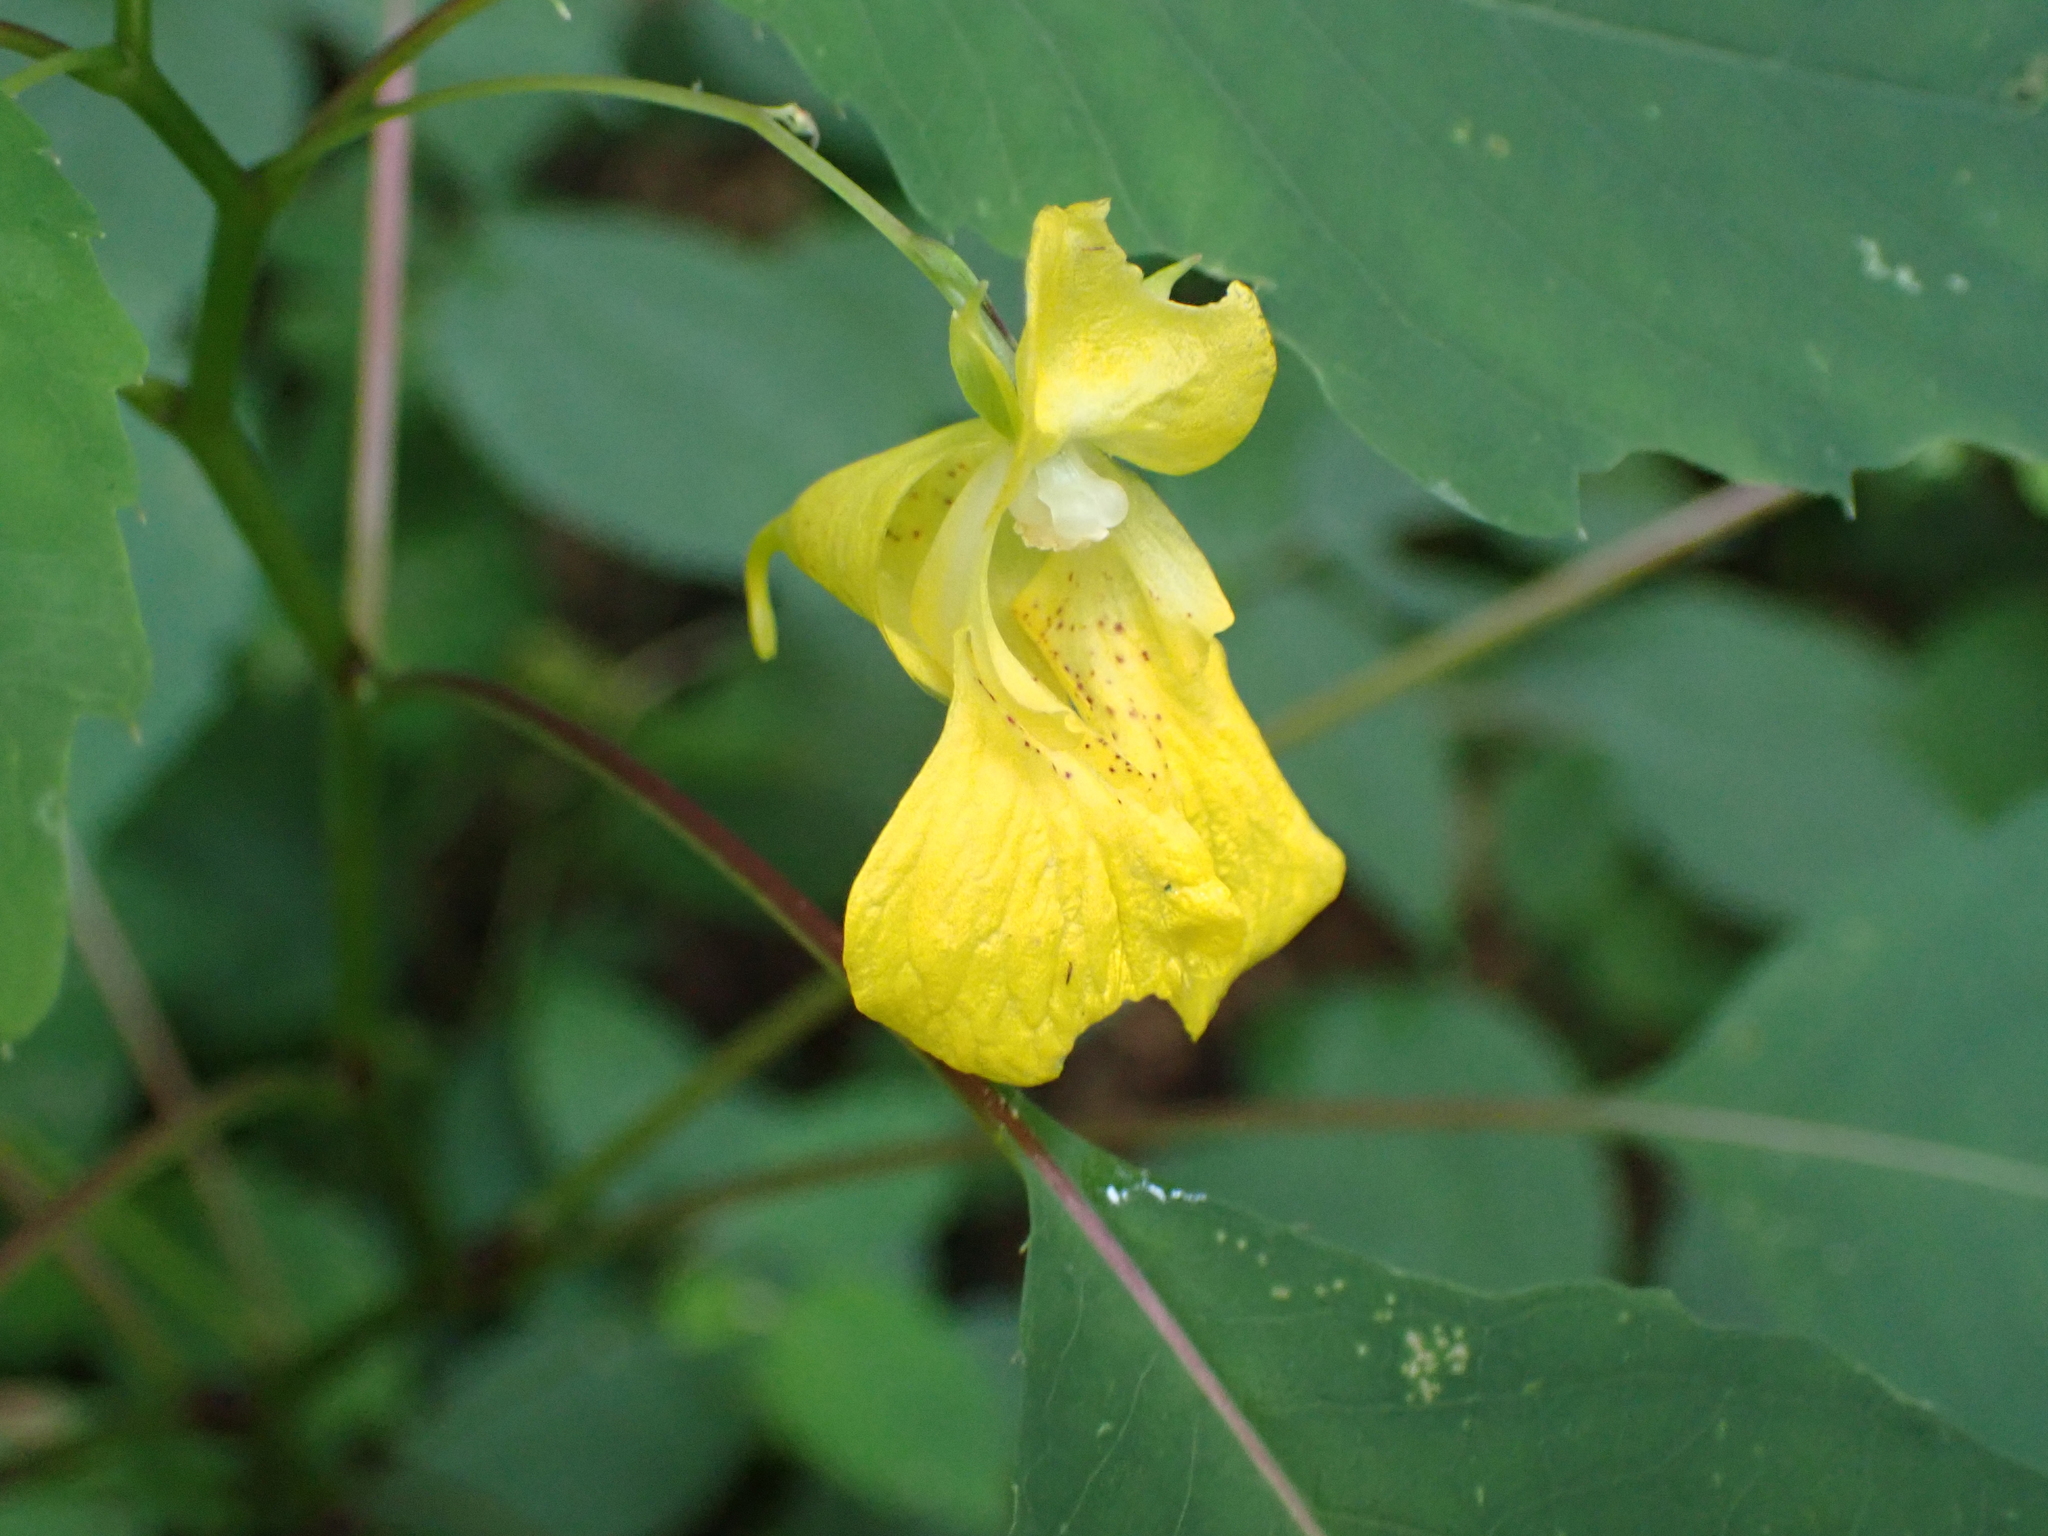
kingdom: Plantae
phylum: Tracheophyta
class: Magnoliopsida
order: Ericales
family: Balsaminaceae
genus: Impatiens
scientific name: Impatiens pallida
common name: Pale snapweed
